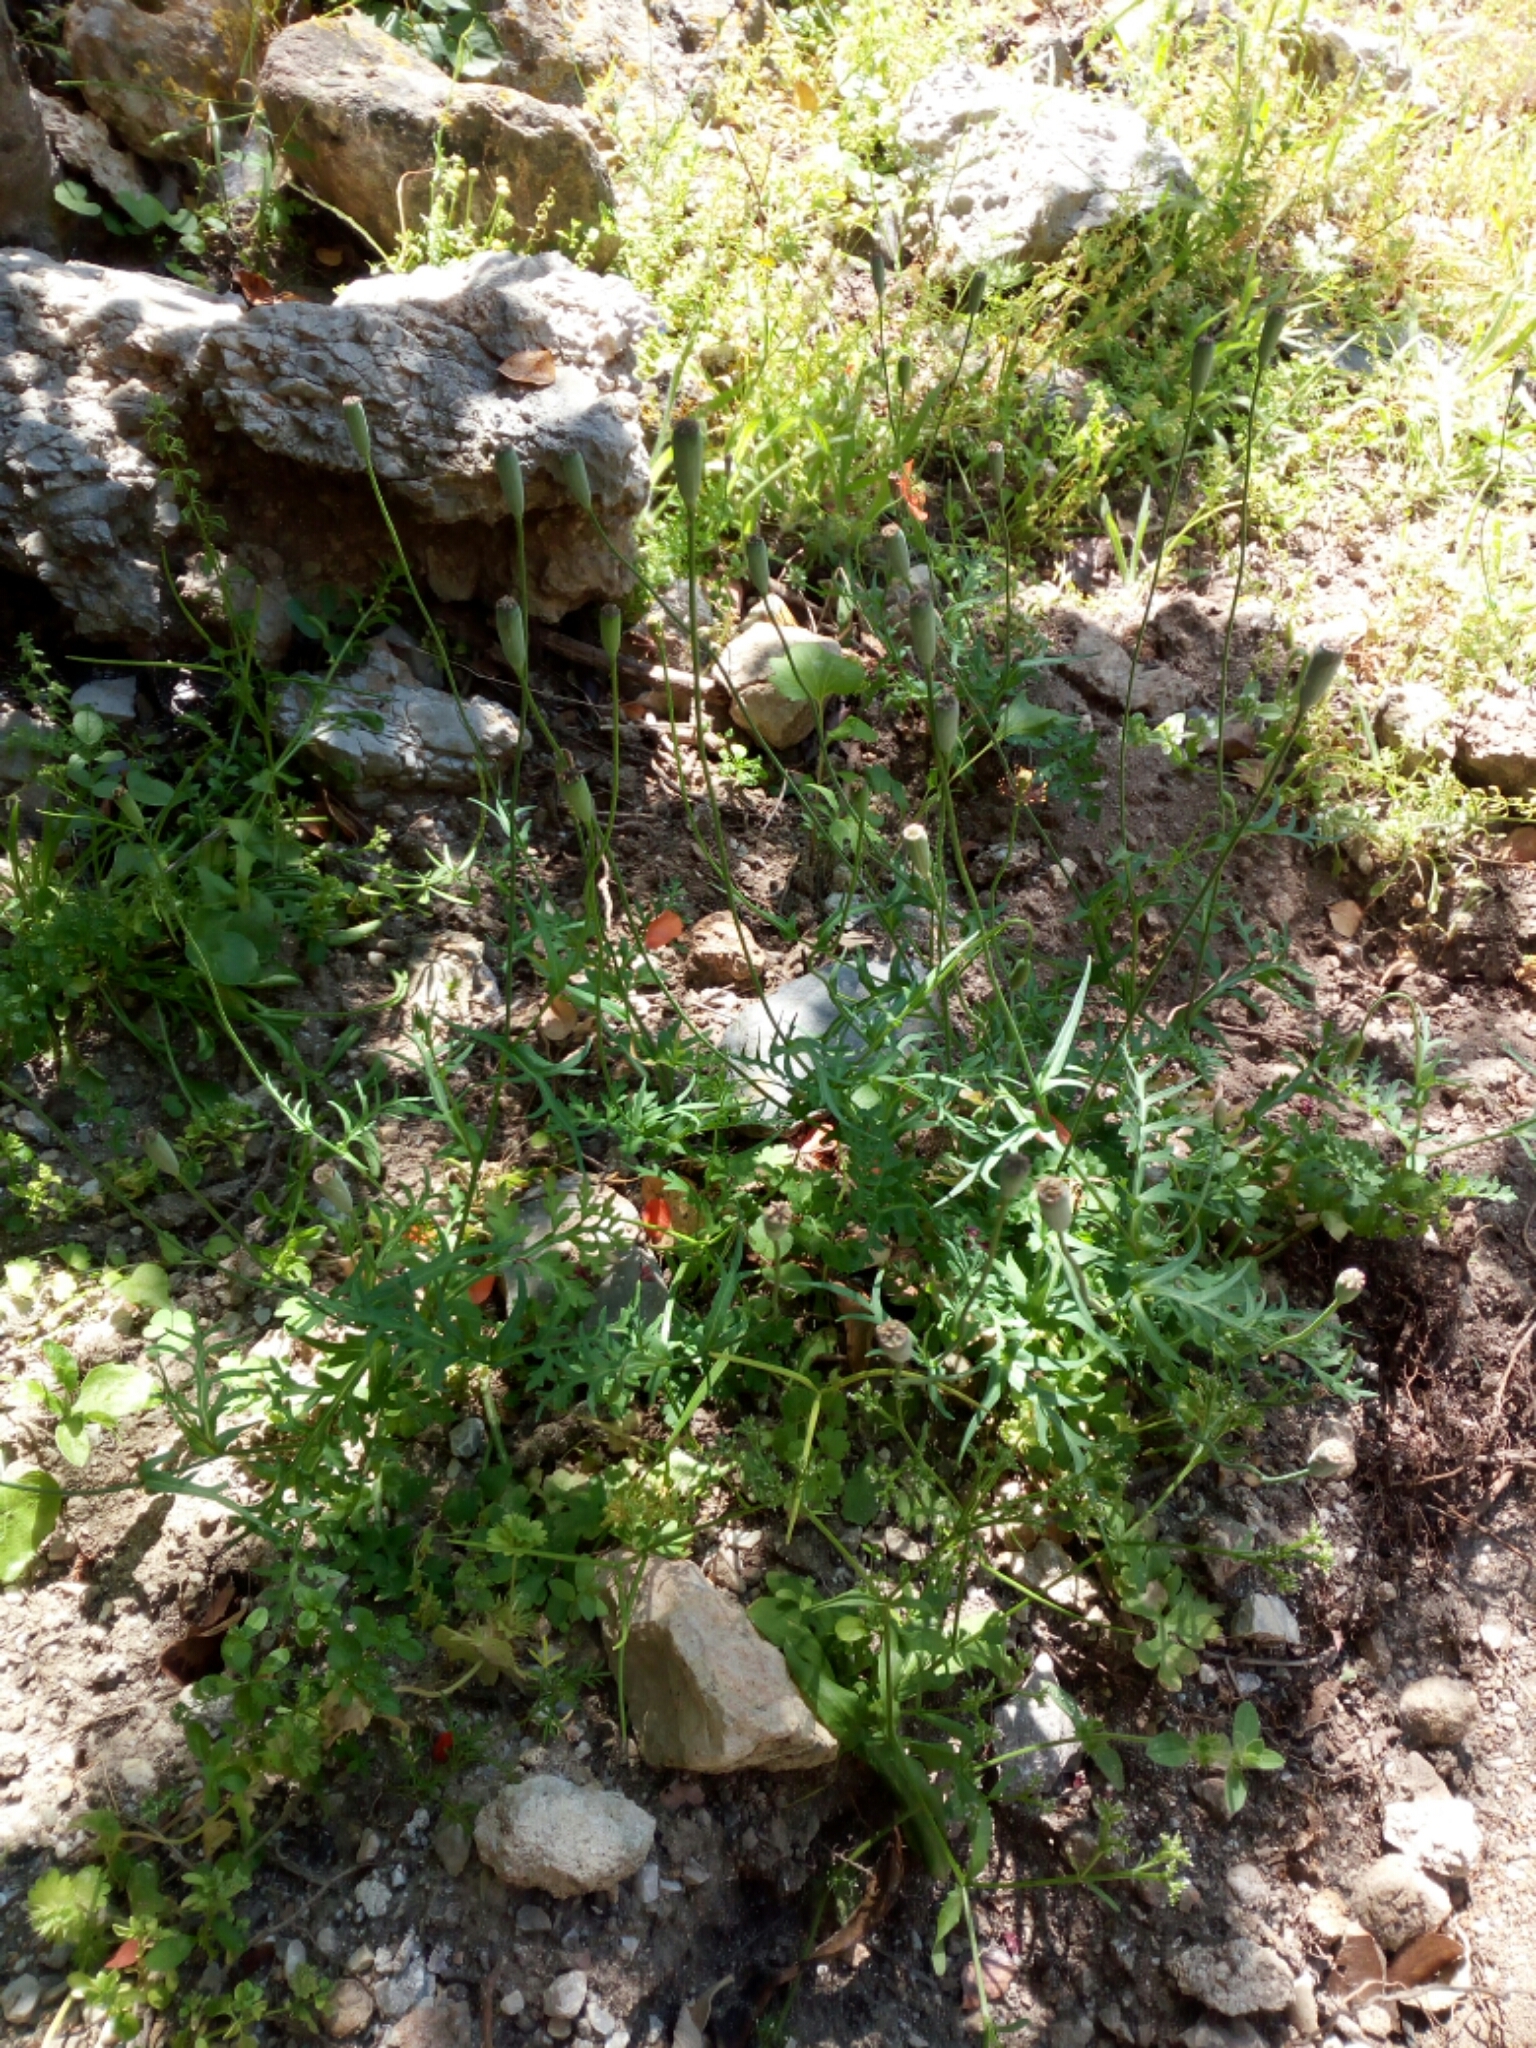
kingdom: Plantae
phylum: Tracheophyta
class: Magnoliopsida
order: Ranunculales
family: Papaveraceae
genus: Papaver
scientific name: Papaver purpureomarginatum
